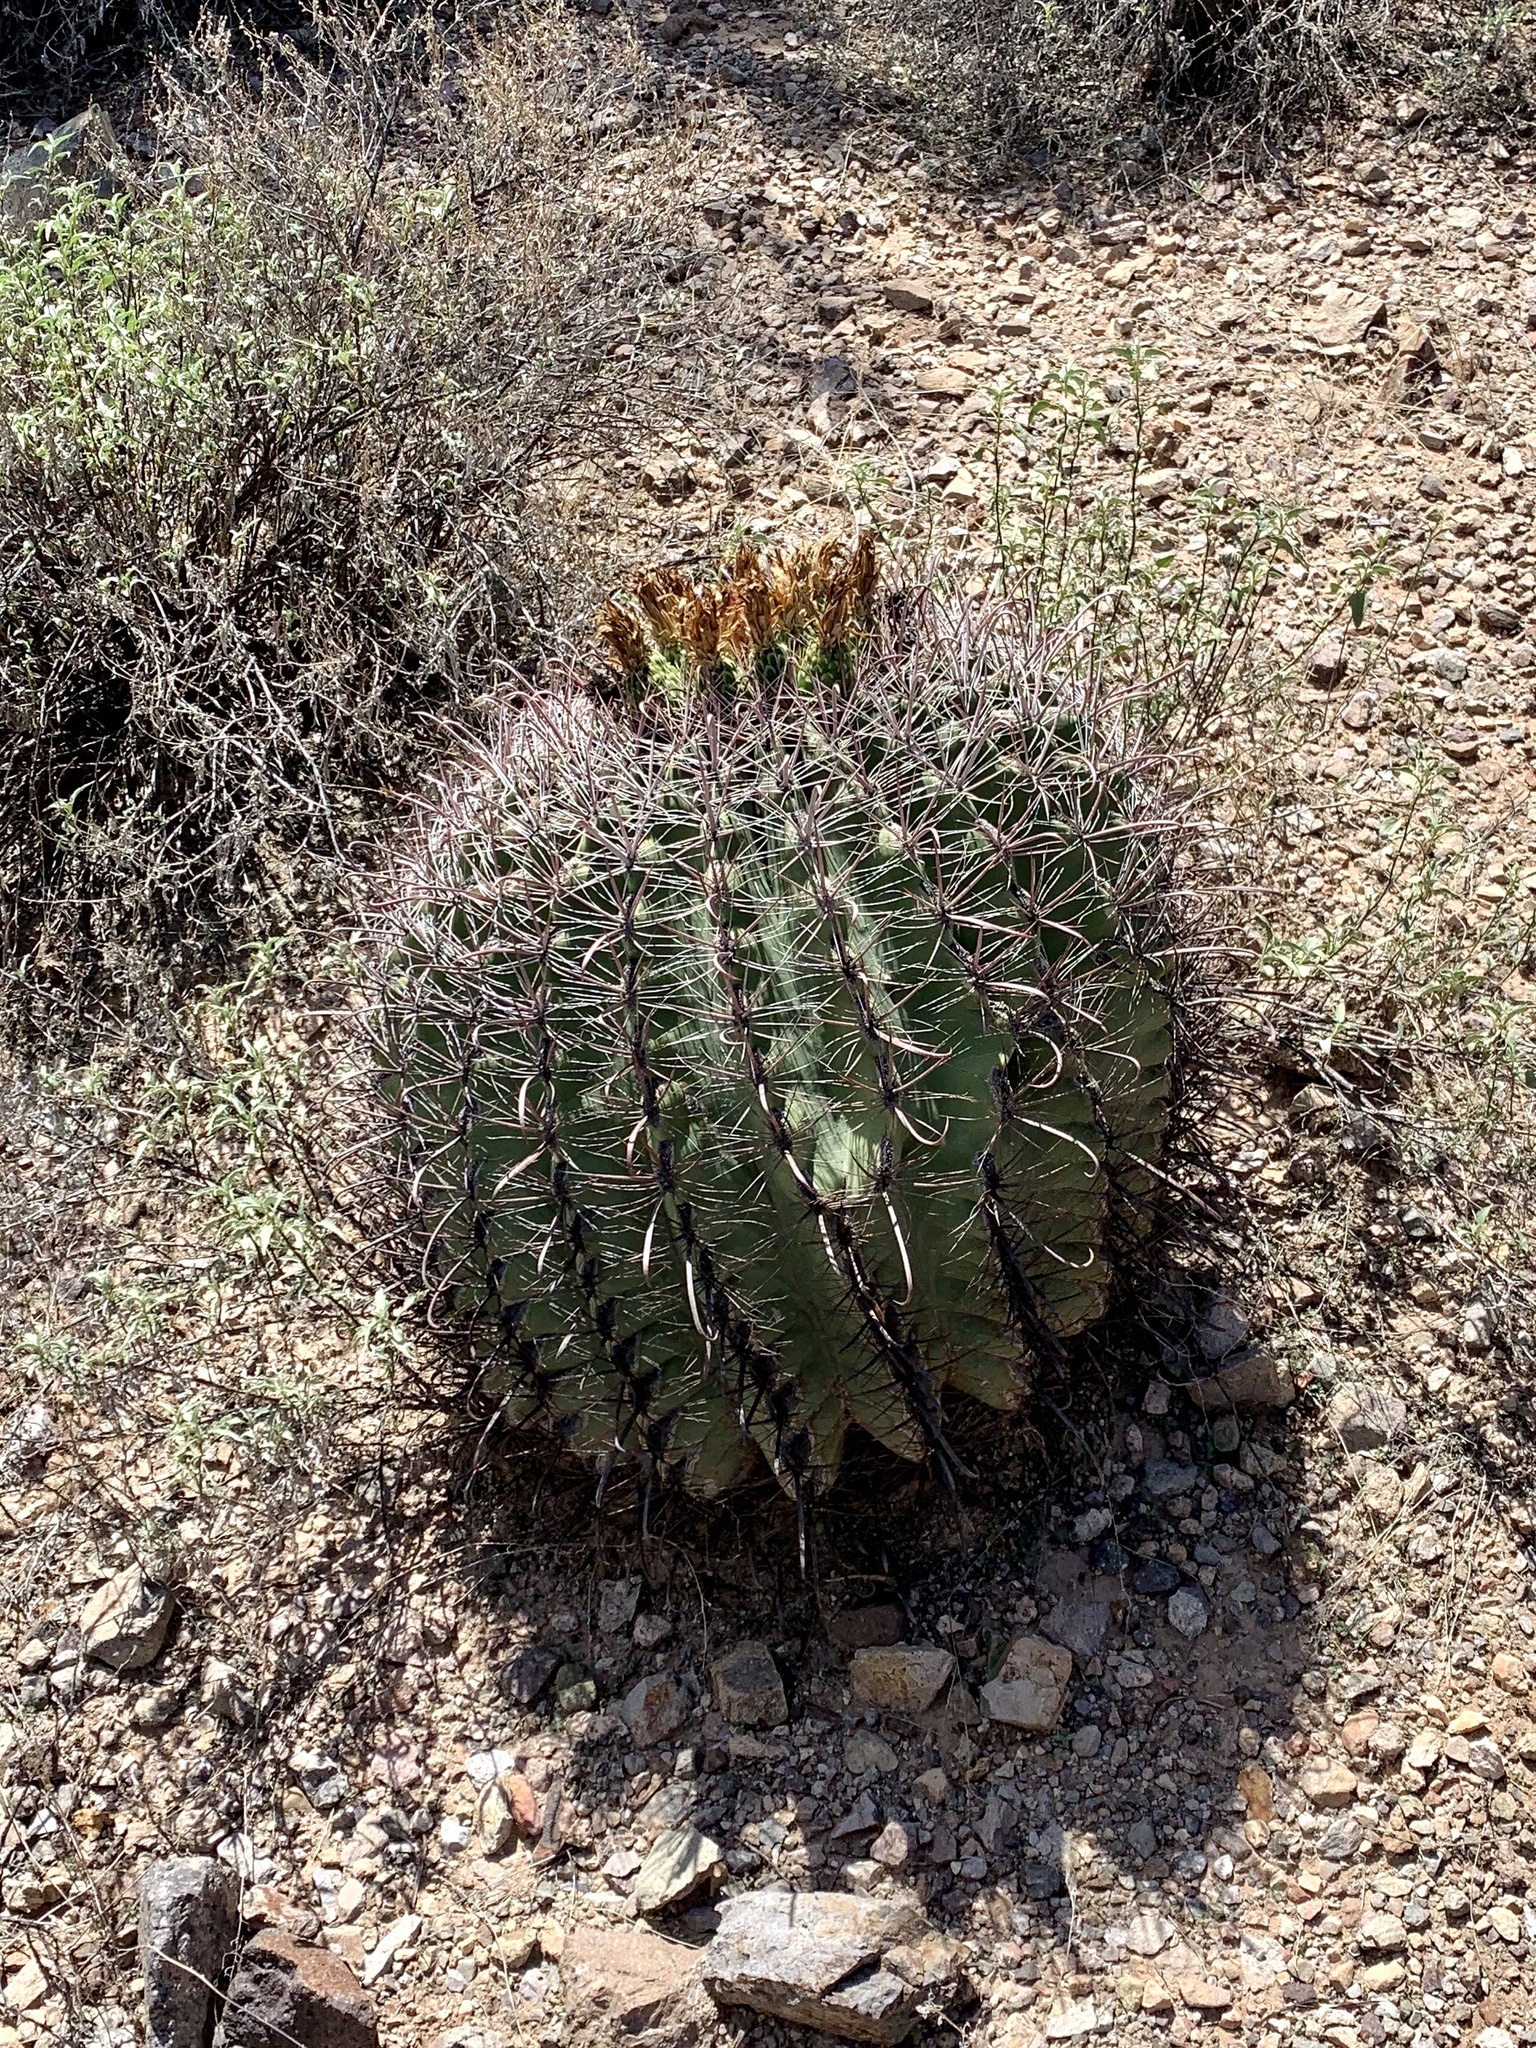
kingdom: Plantae
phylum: Tracheophyta
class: Magnoliopsida
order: Caryophyllales
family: Cactaceae
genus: Ferocactus
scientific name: Ferocactus wislizeni
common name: Candy barrel cactus
